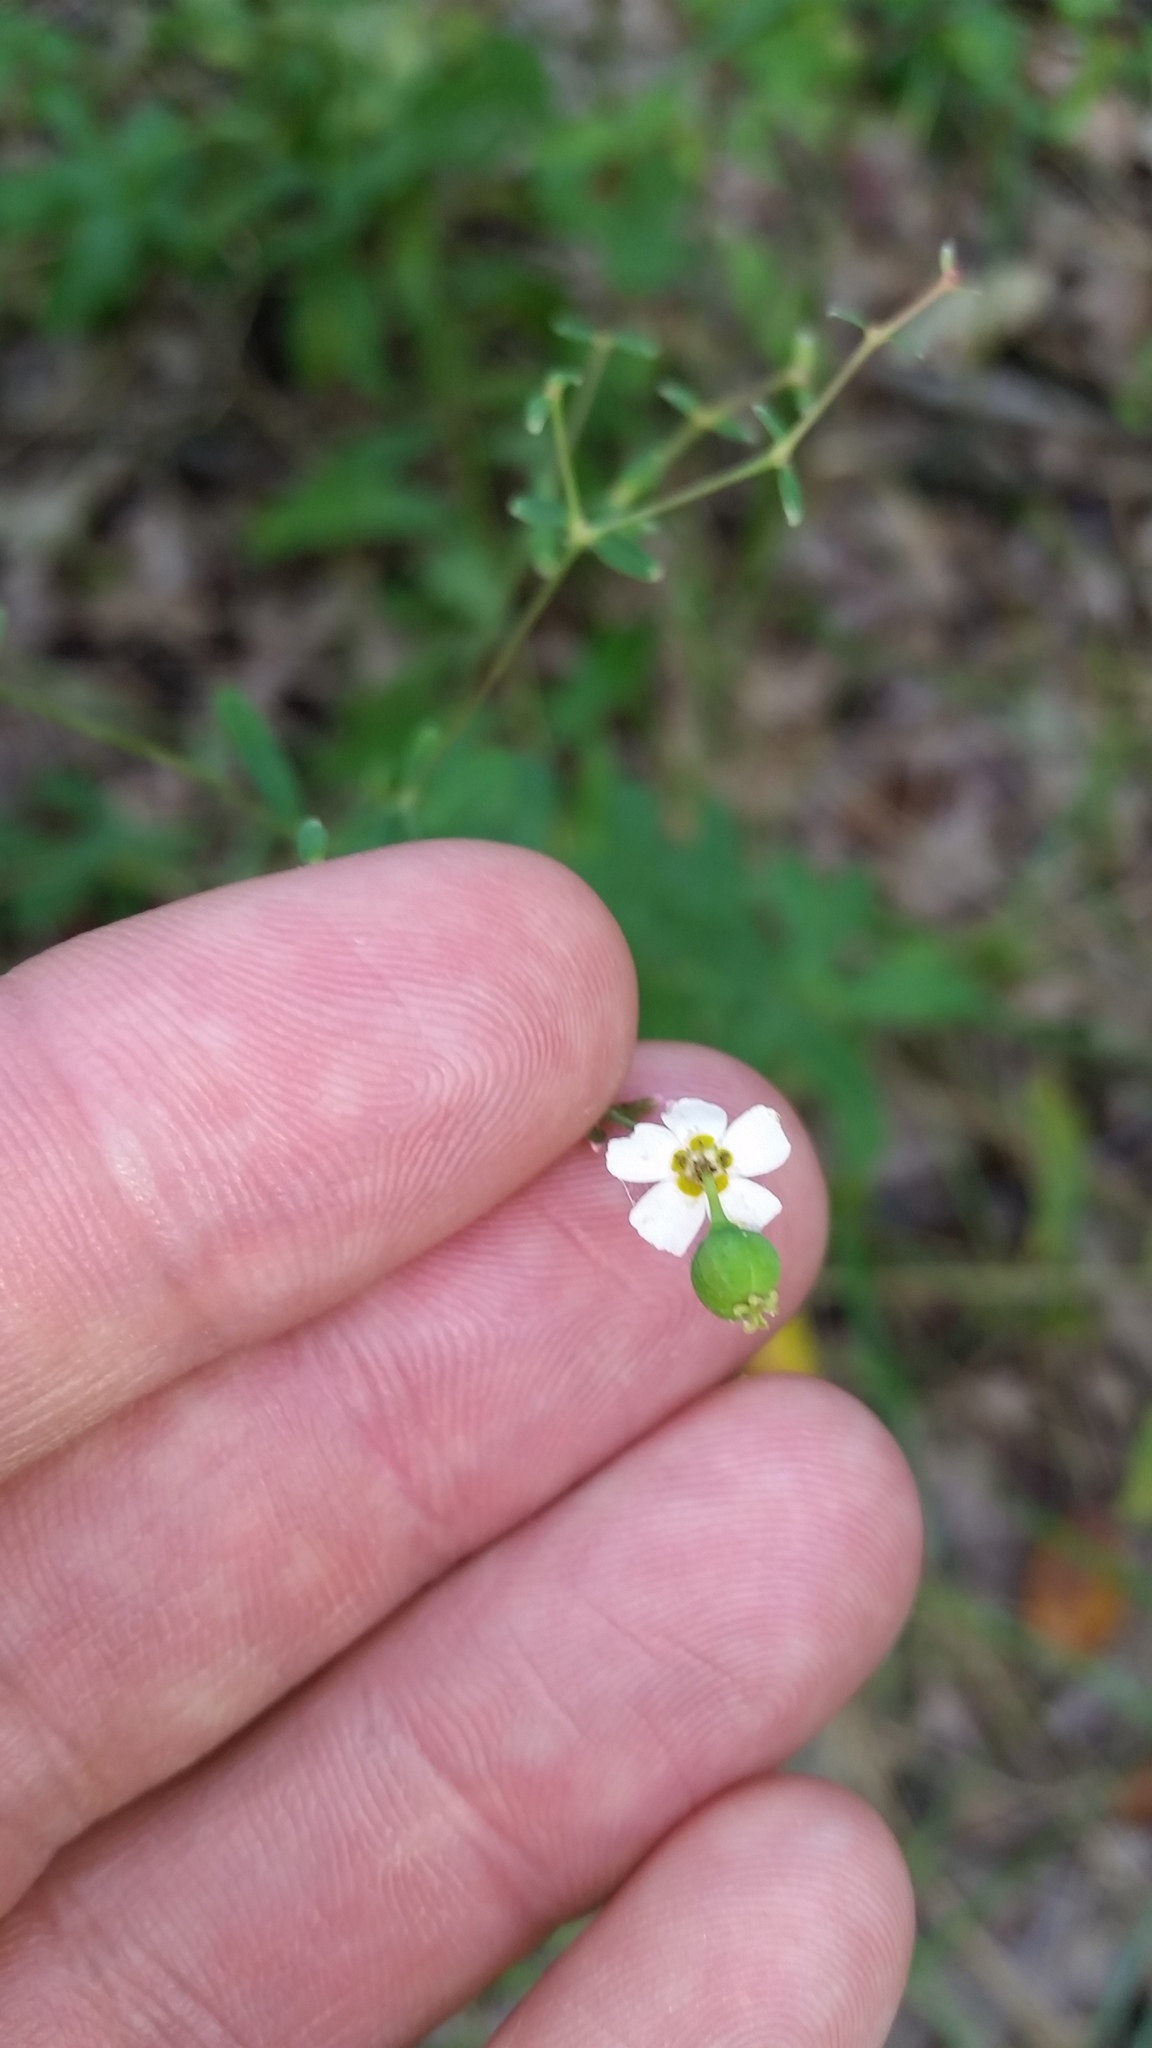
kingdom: Plantae
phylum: Tracheophyta
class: Magnoliopsida
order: Malpighiales
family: Euphorbiaceae
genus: Euphorbia
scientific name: Euphorbia corollata
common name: Flowering spurge
